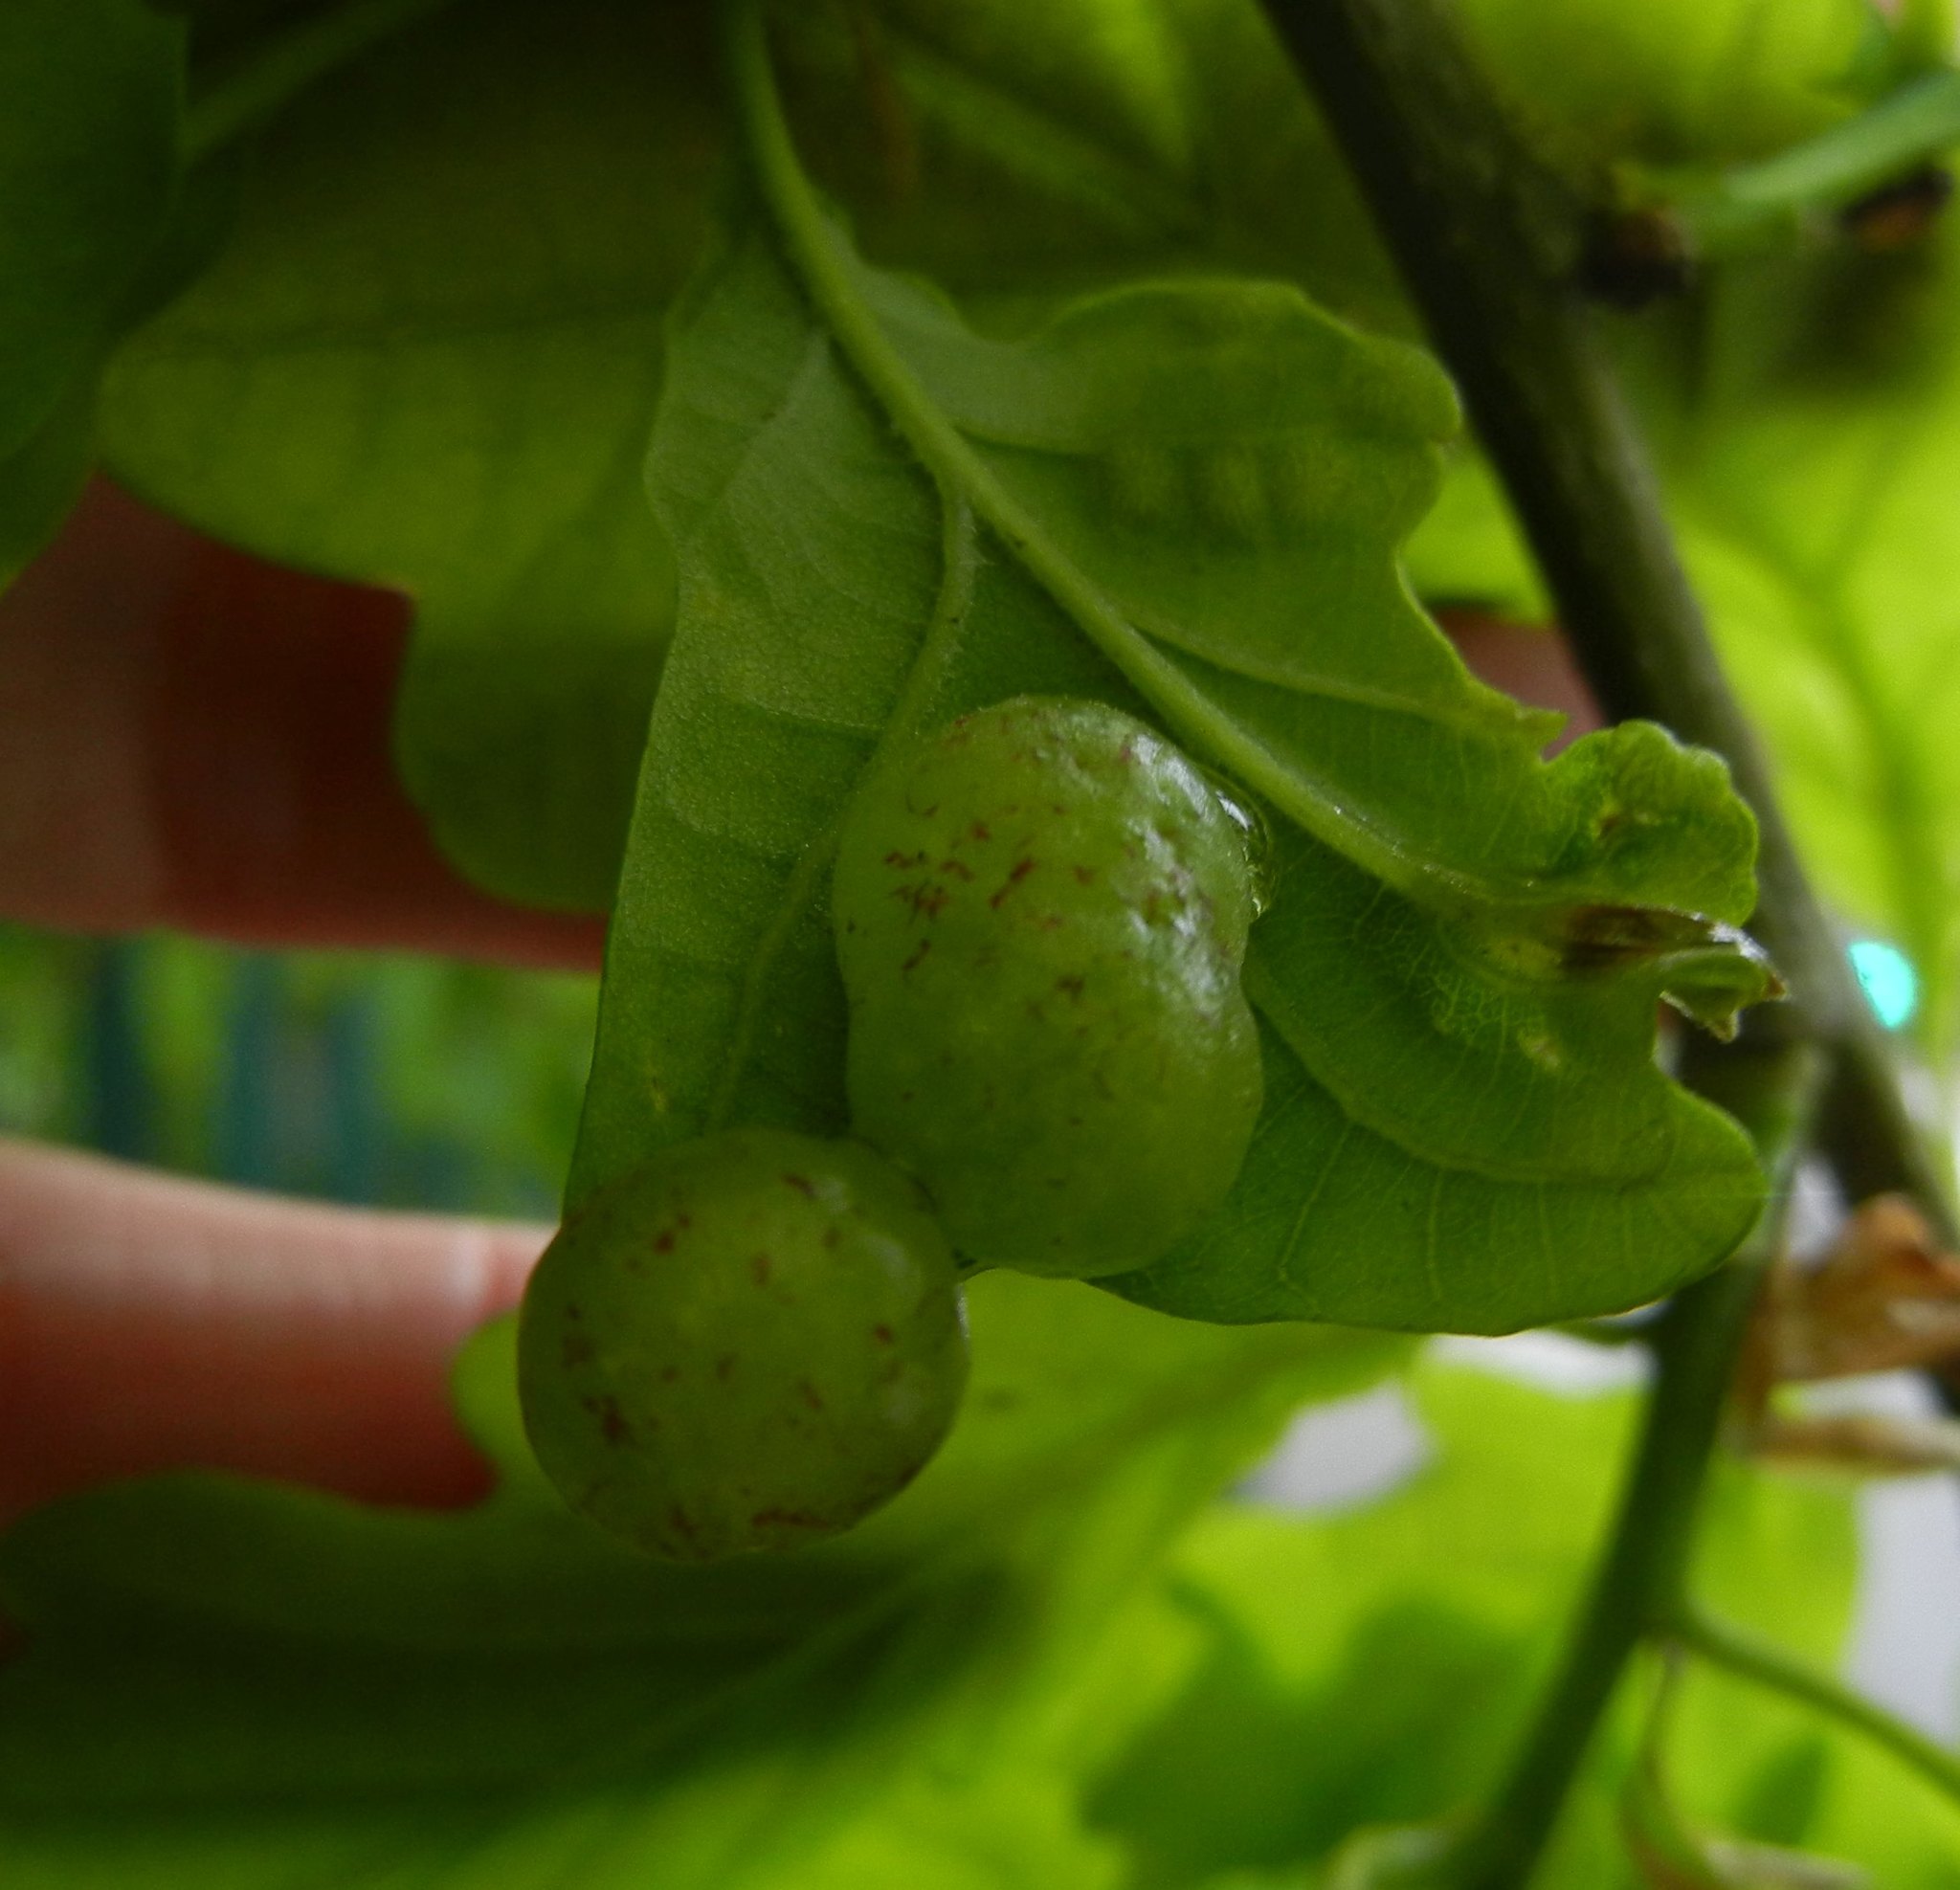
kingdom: Animalia
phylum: Arthropoda
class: Insecta
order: Hymenoptera
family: Cynipidae
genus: Neuroterus
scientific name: Neuroterus quercusbaccarum
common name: Common spangle gall
